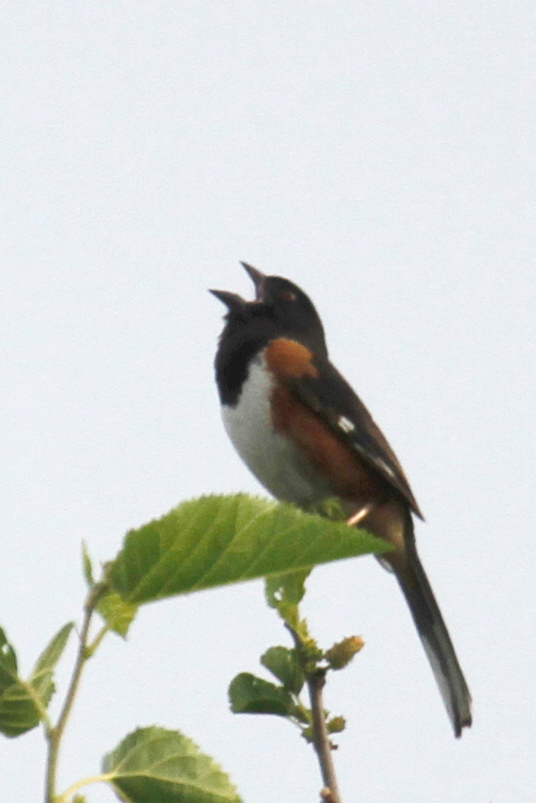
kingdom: Animalia
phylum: Chordata
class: Aves
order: Passeriformes
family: Passerellidae
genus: Pipilo
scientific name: Pipilo erythrophthalmus
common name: Eastern towhee
